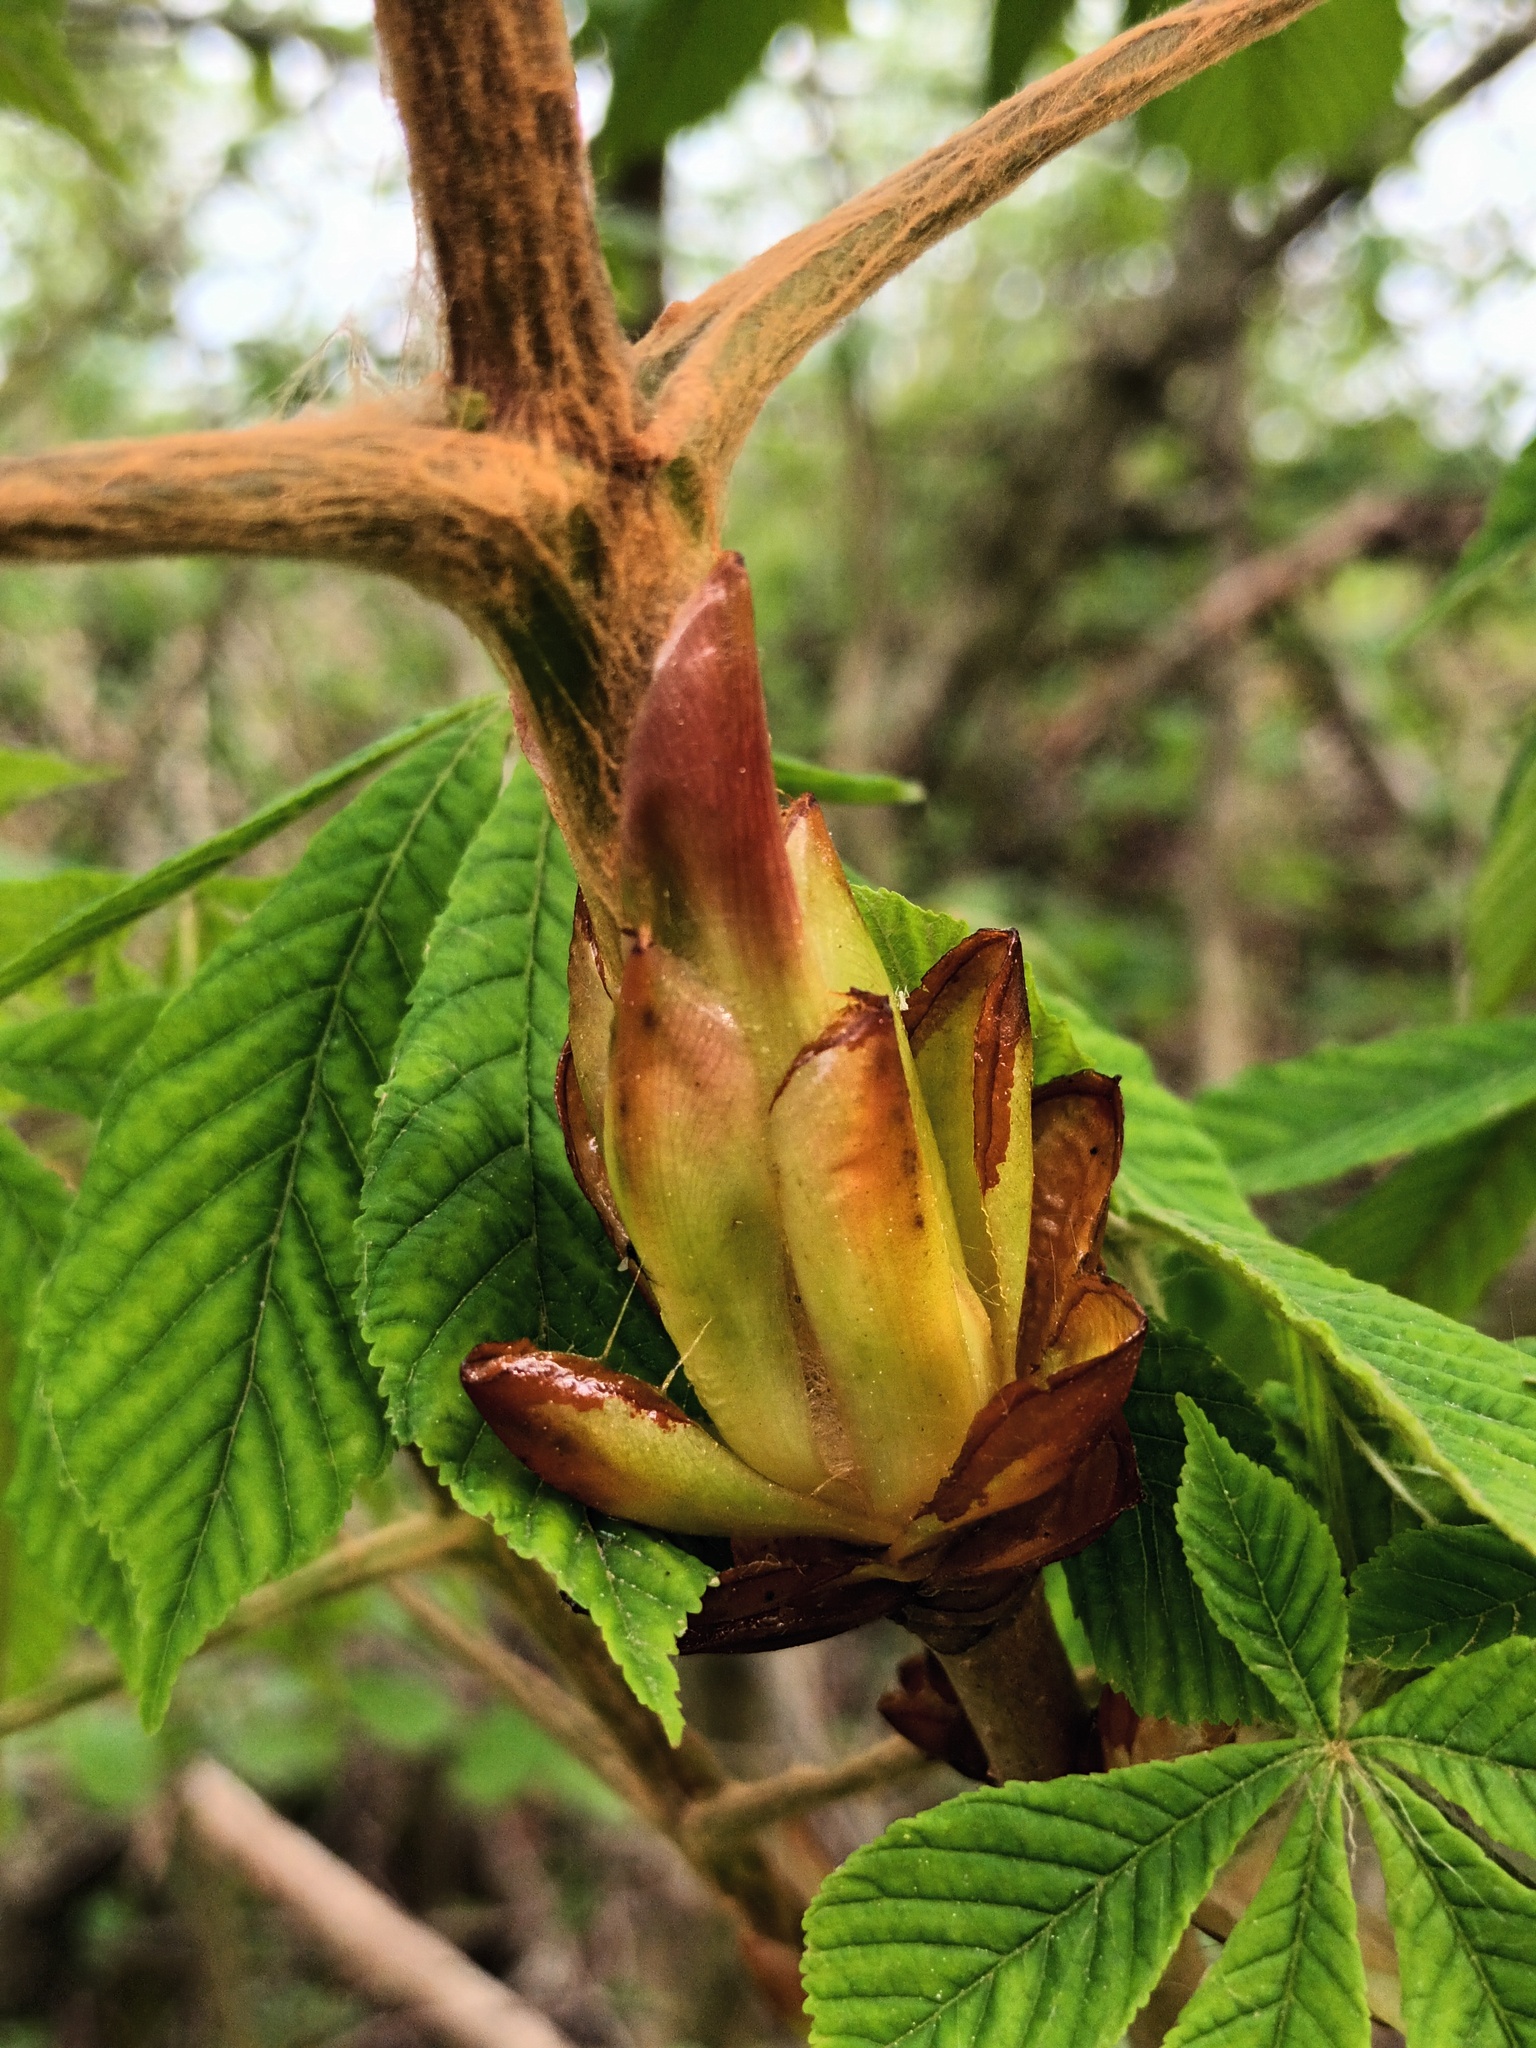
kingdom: Plantae
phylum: Tracheophyta
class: Magnoliopsida
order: Sapindales
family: Sapindaceae
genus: Aesculus
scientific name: Aesculus hippocastanum
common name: Horse-chestnut
